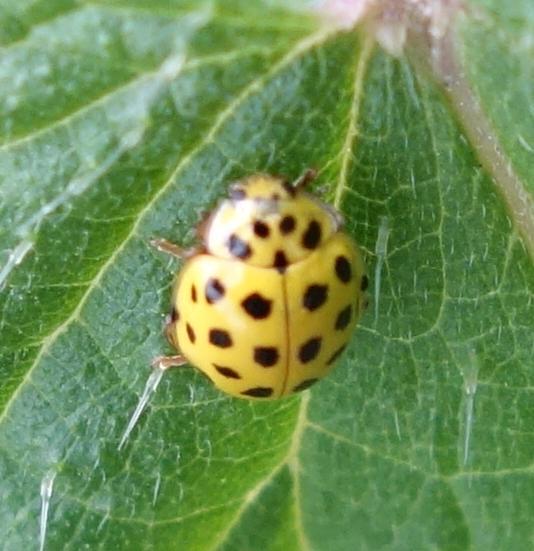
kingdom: Animalia
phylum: Arthropoda
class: Insecta
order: Coleoptera
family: Coccinellidae
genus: Psyllobora
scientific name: Psyllobora vigintiduopunctata
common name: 22-spot ladybird
